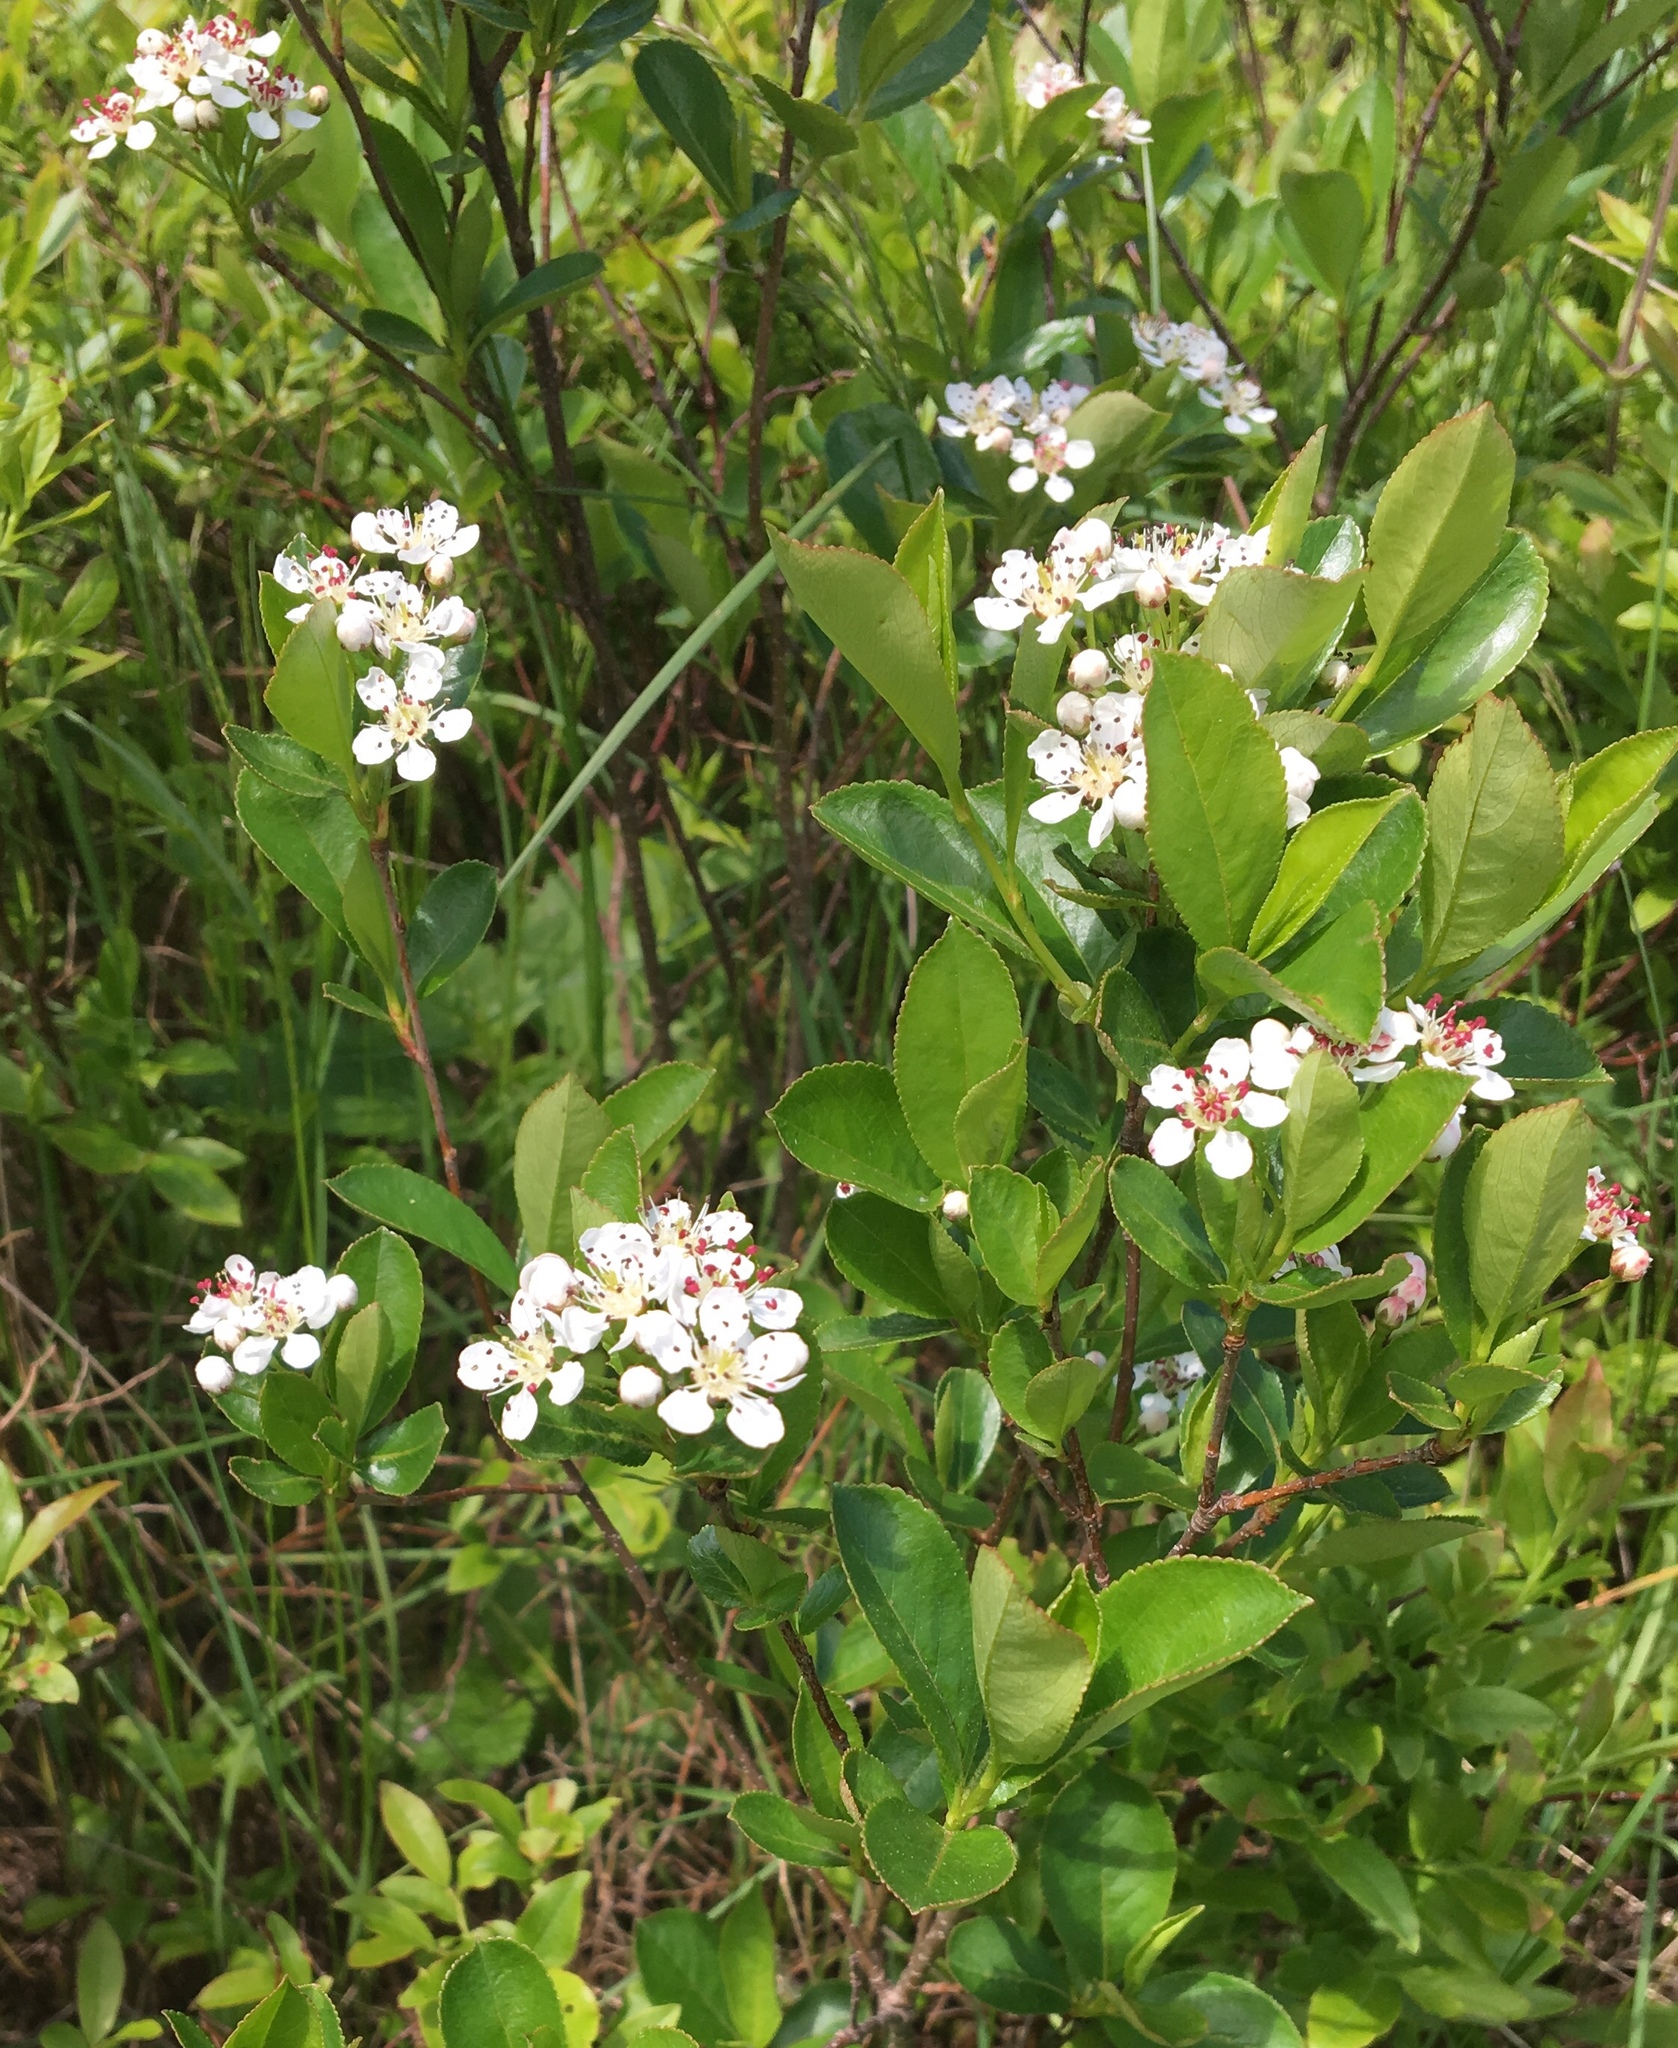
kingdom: Plantae
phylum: Tracheophyta
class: Magnoliopsida
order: Rosales
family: Rosaceae
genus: Aronia
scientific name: Aronia melanocarpa
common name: Black chokeberry
